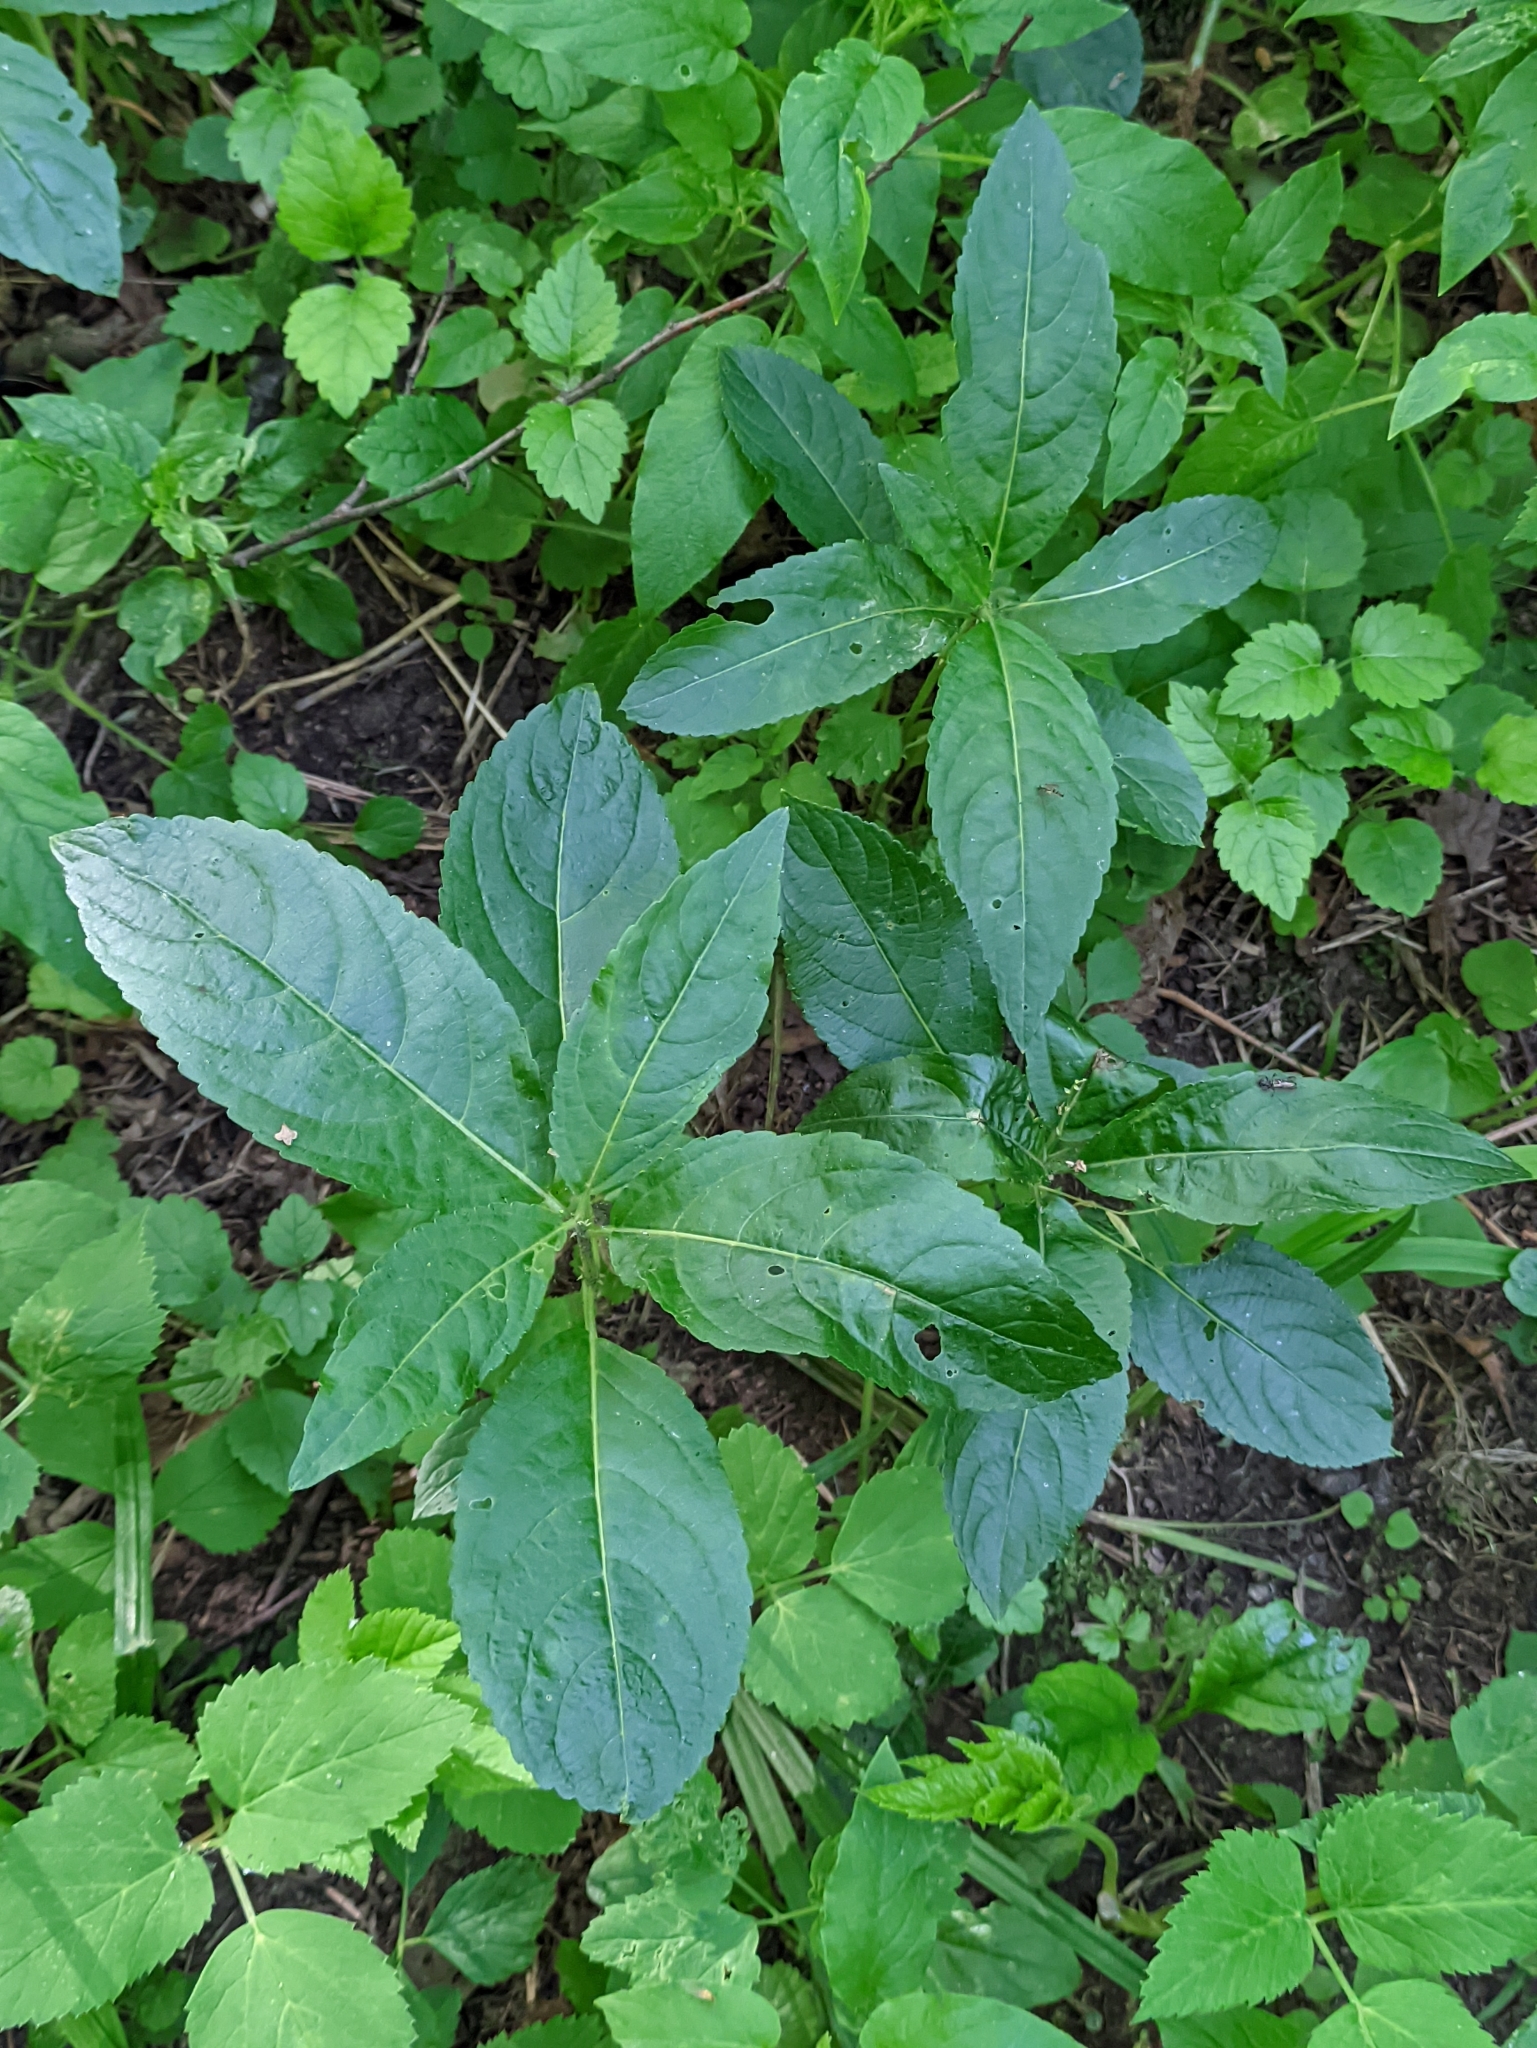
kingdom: Plantae
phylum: Tracheophyta
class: Magnoliopsida
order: Malpighiales
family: Euphorbiaceae
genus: Mercurialis
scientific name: Mercurialis perennis
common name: Dog mercury
